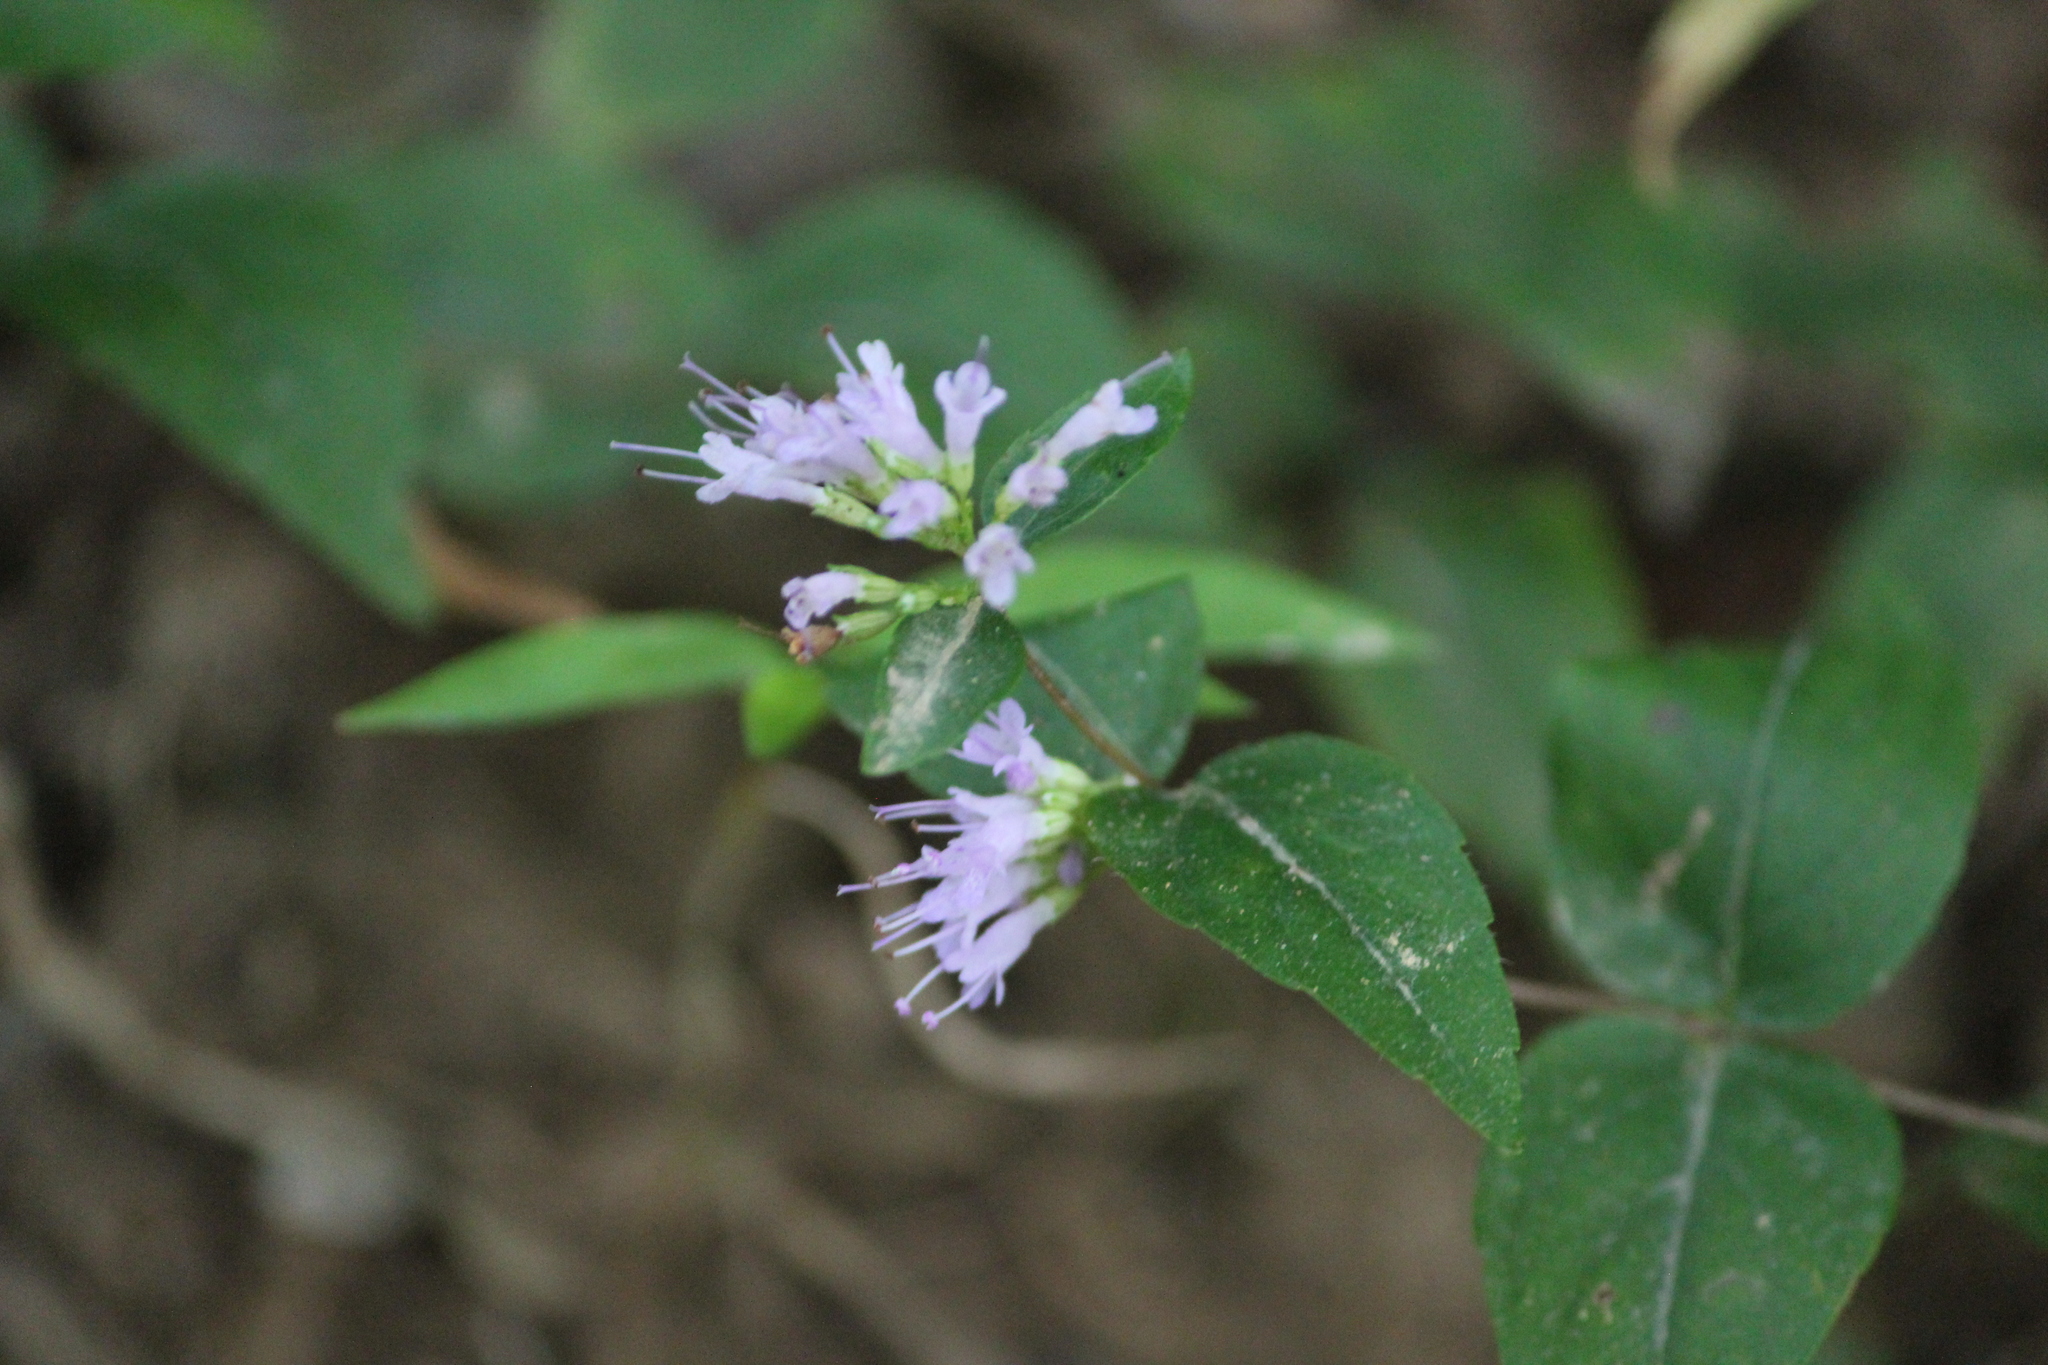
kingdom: Plantae
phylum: Tracheophyta
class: Magnoliopsida
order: Lamiales
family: Lamiaceae
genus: Cunila
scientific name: Cunila origanoides
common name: American dittany
